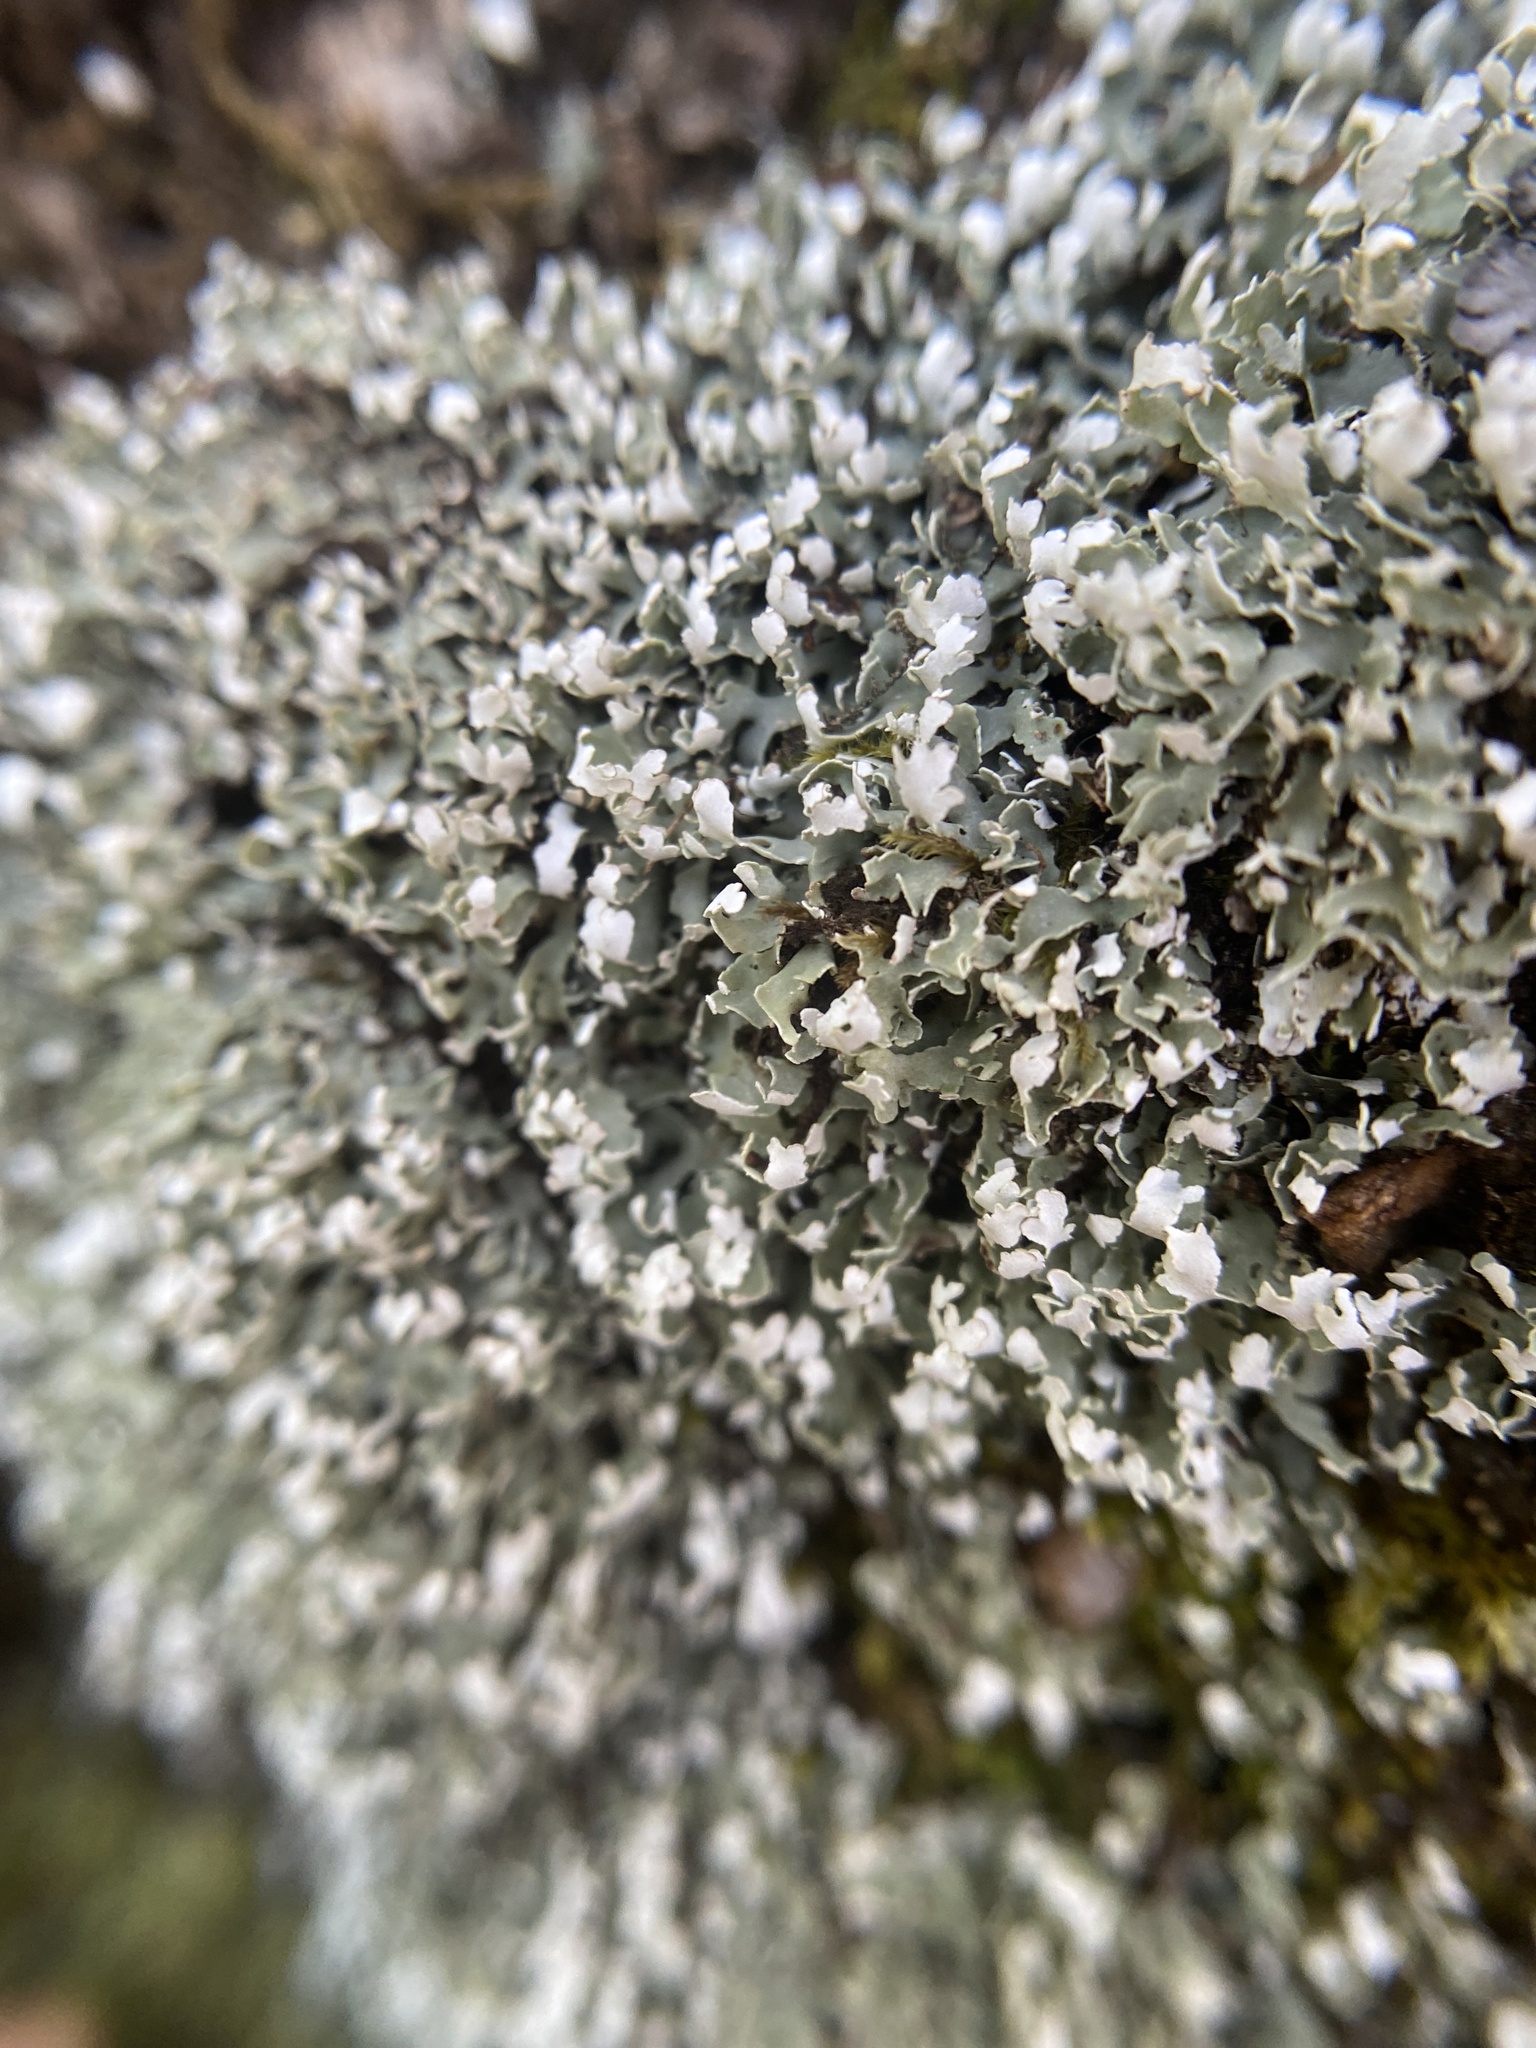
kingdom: Fungi
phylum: Ascomycota
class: Lecanoromycetes
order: Lecanorales
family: Cladoniaceae
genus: Cladonia
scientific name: Cladonia apodocarpa
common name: Stalkless cladonia
